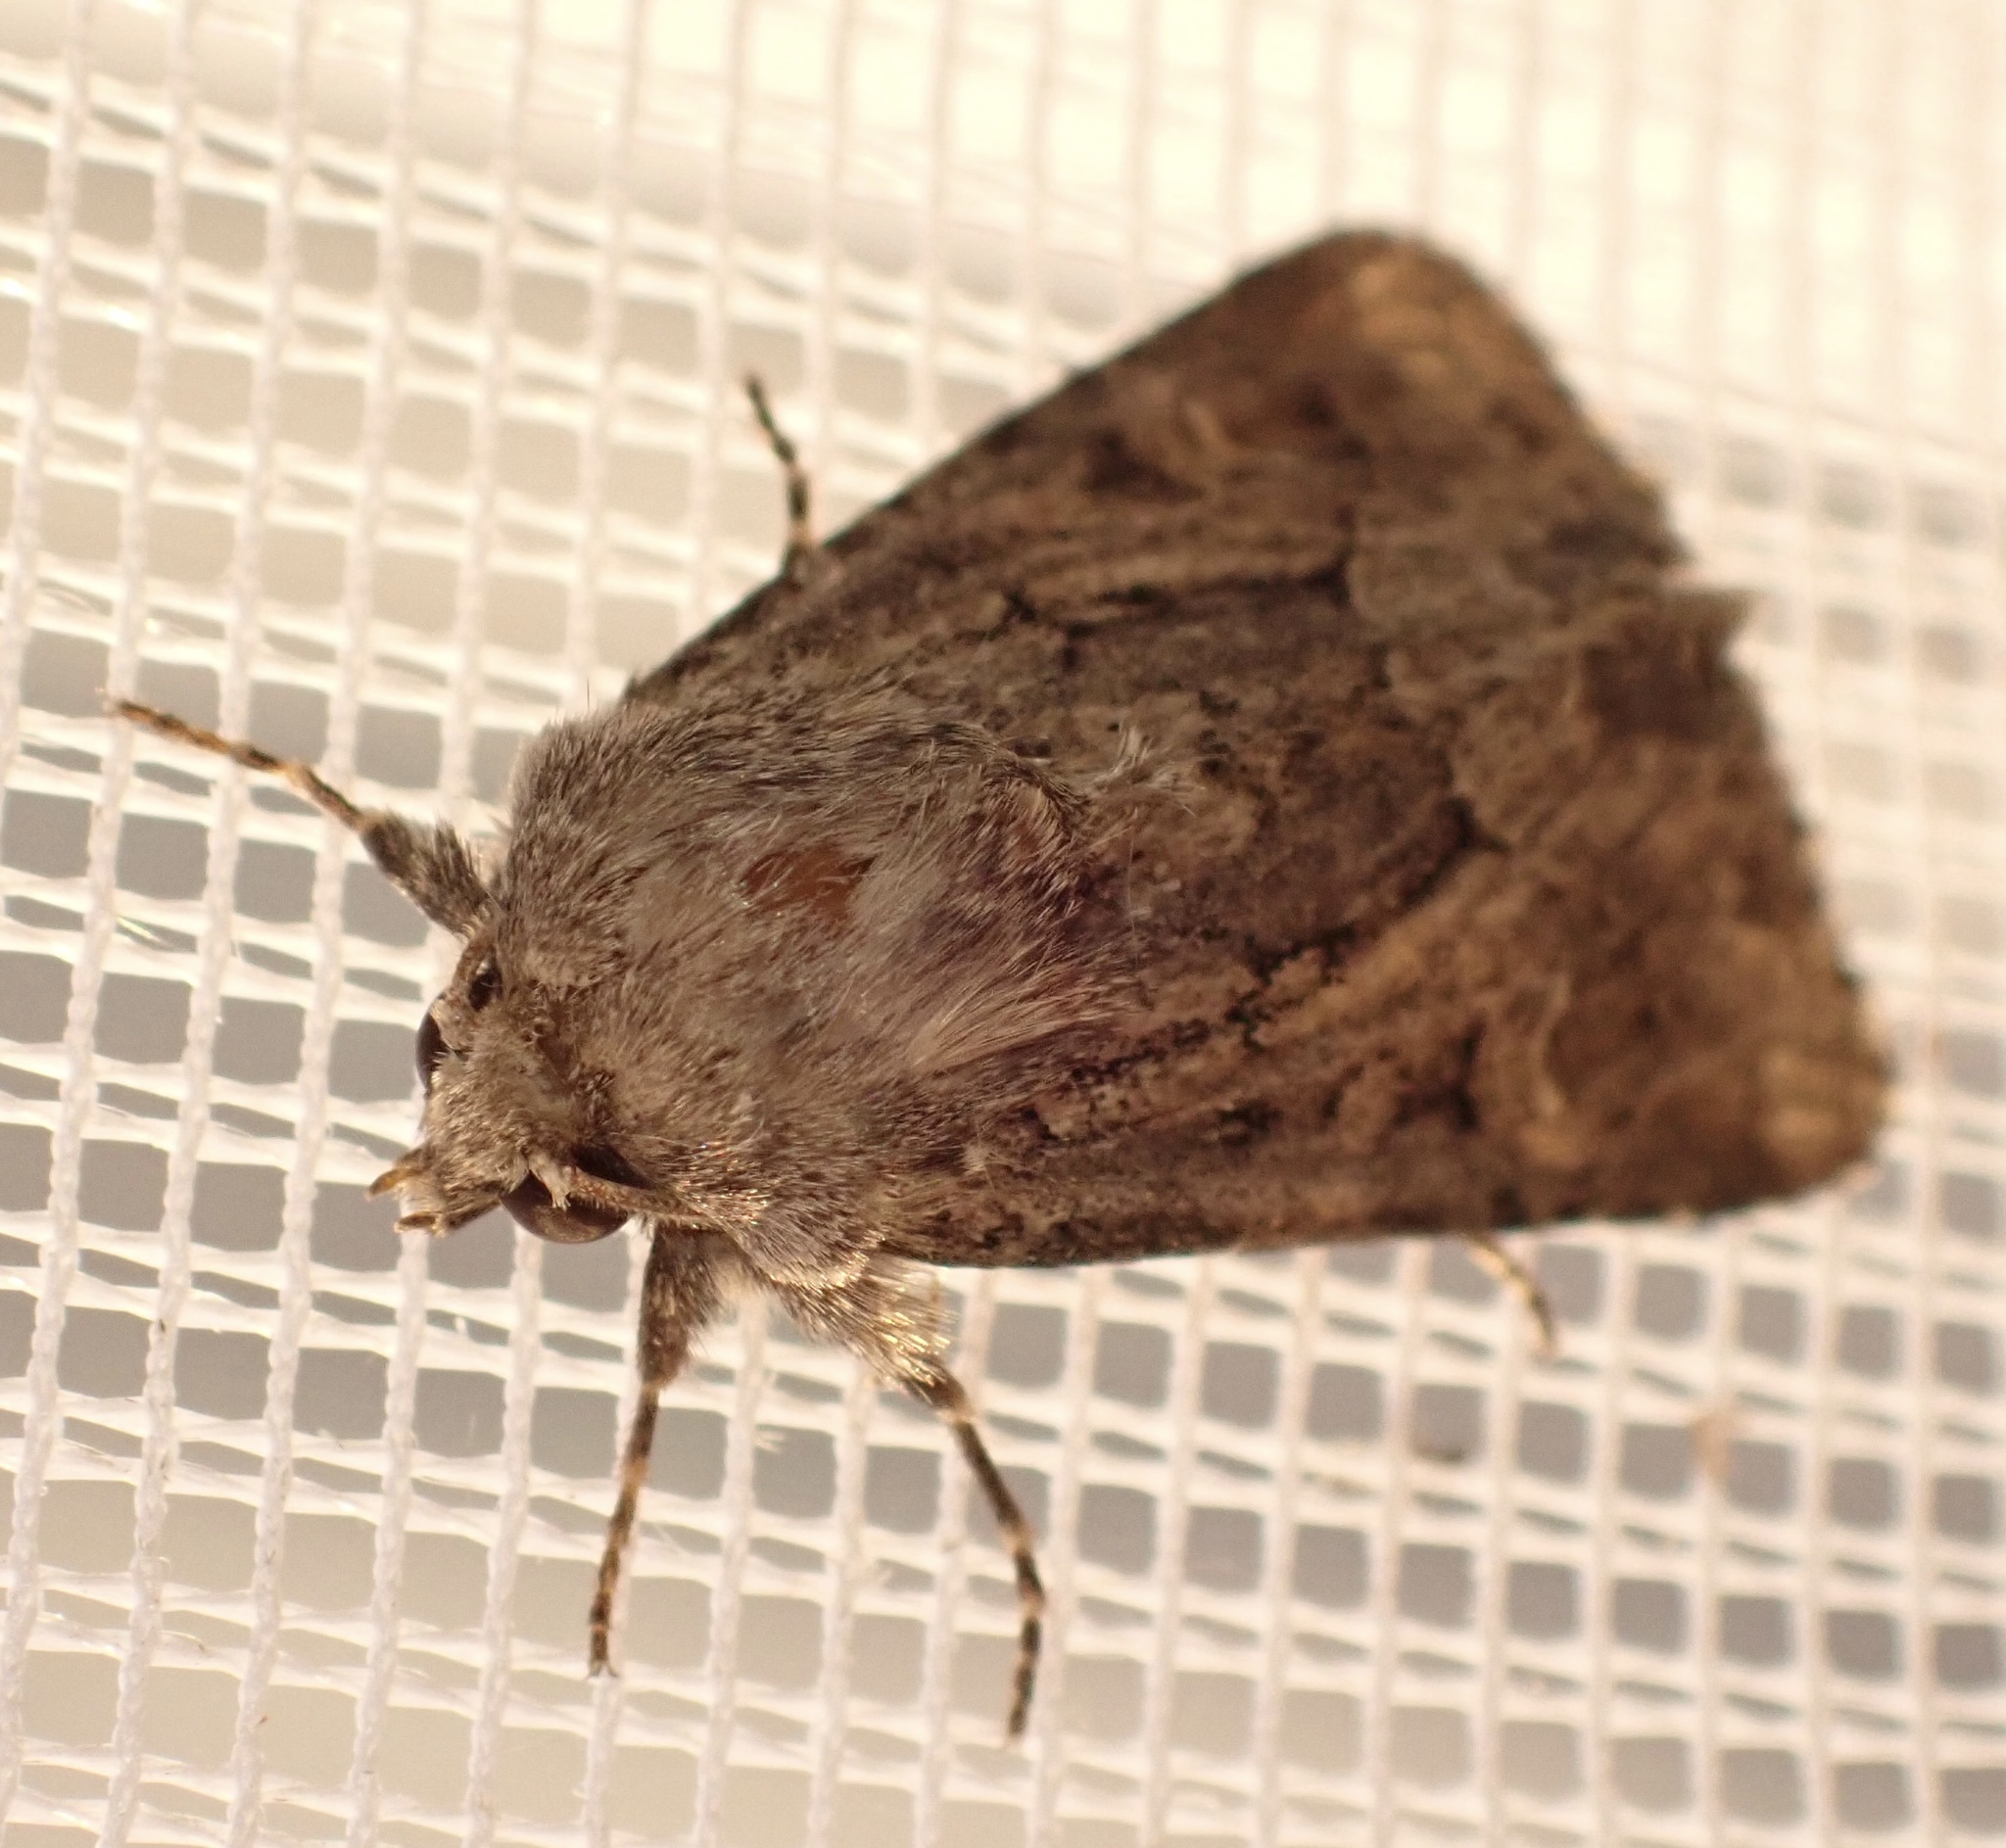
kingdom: Animalia
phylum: Arthropoda
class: Insecta
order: Lepidoptera
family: Noctuidae
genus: Luperina
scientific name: Luperina testacea
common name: Flounced rustic
